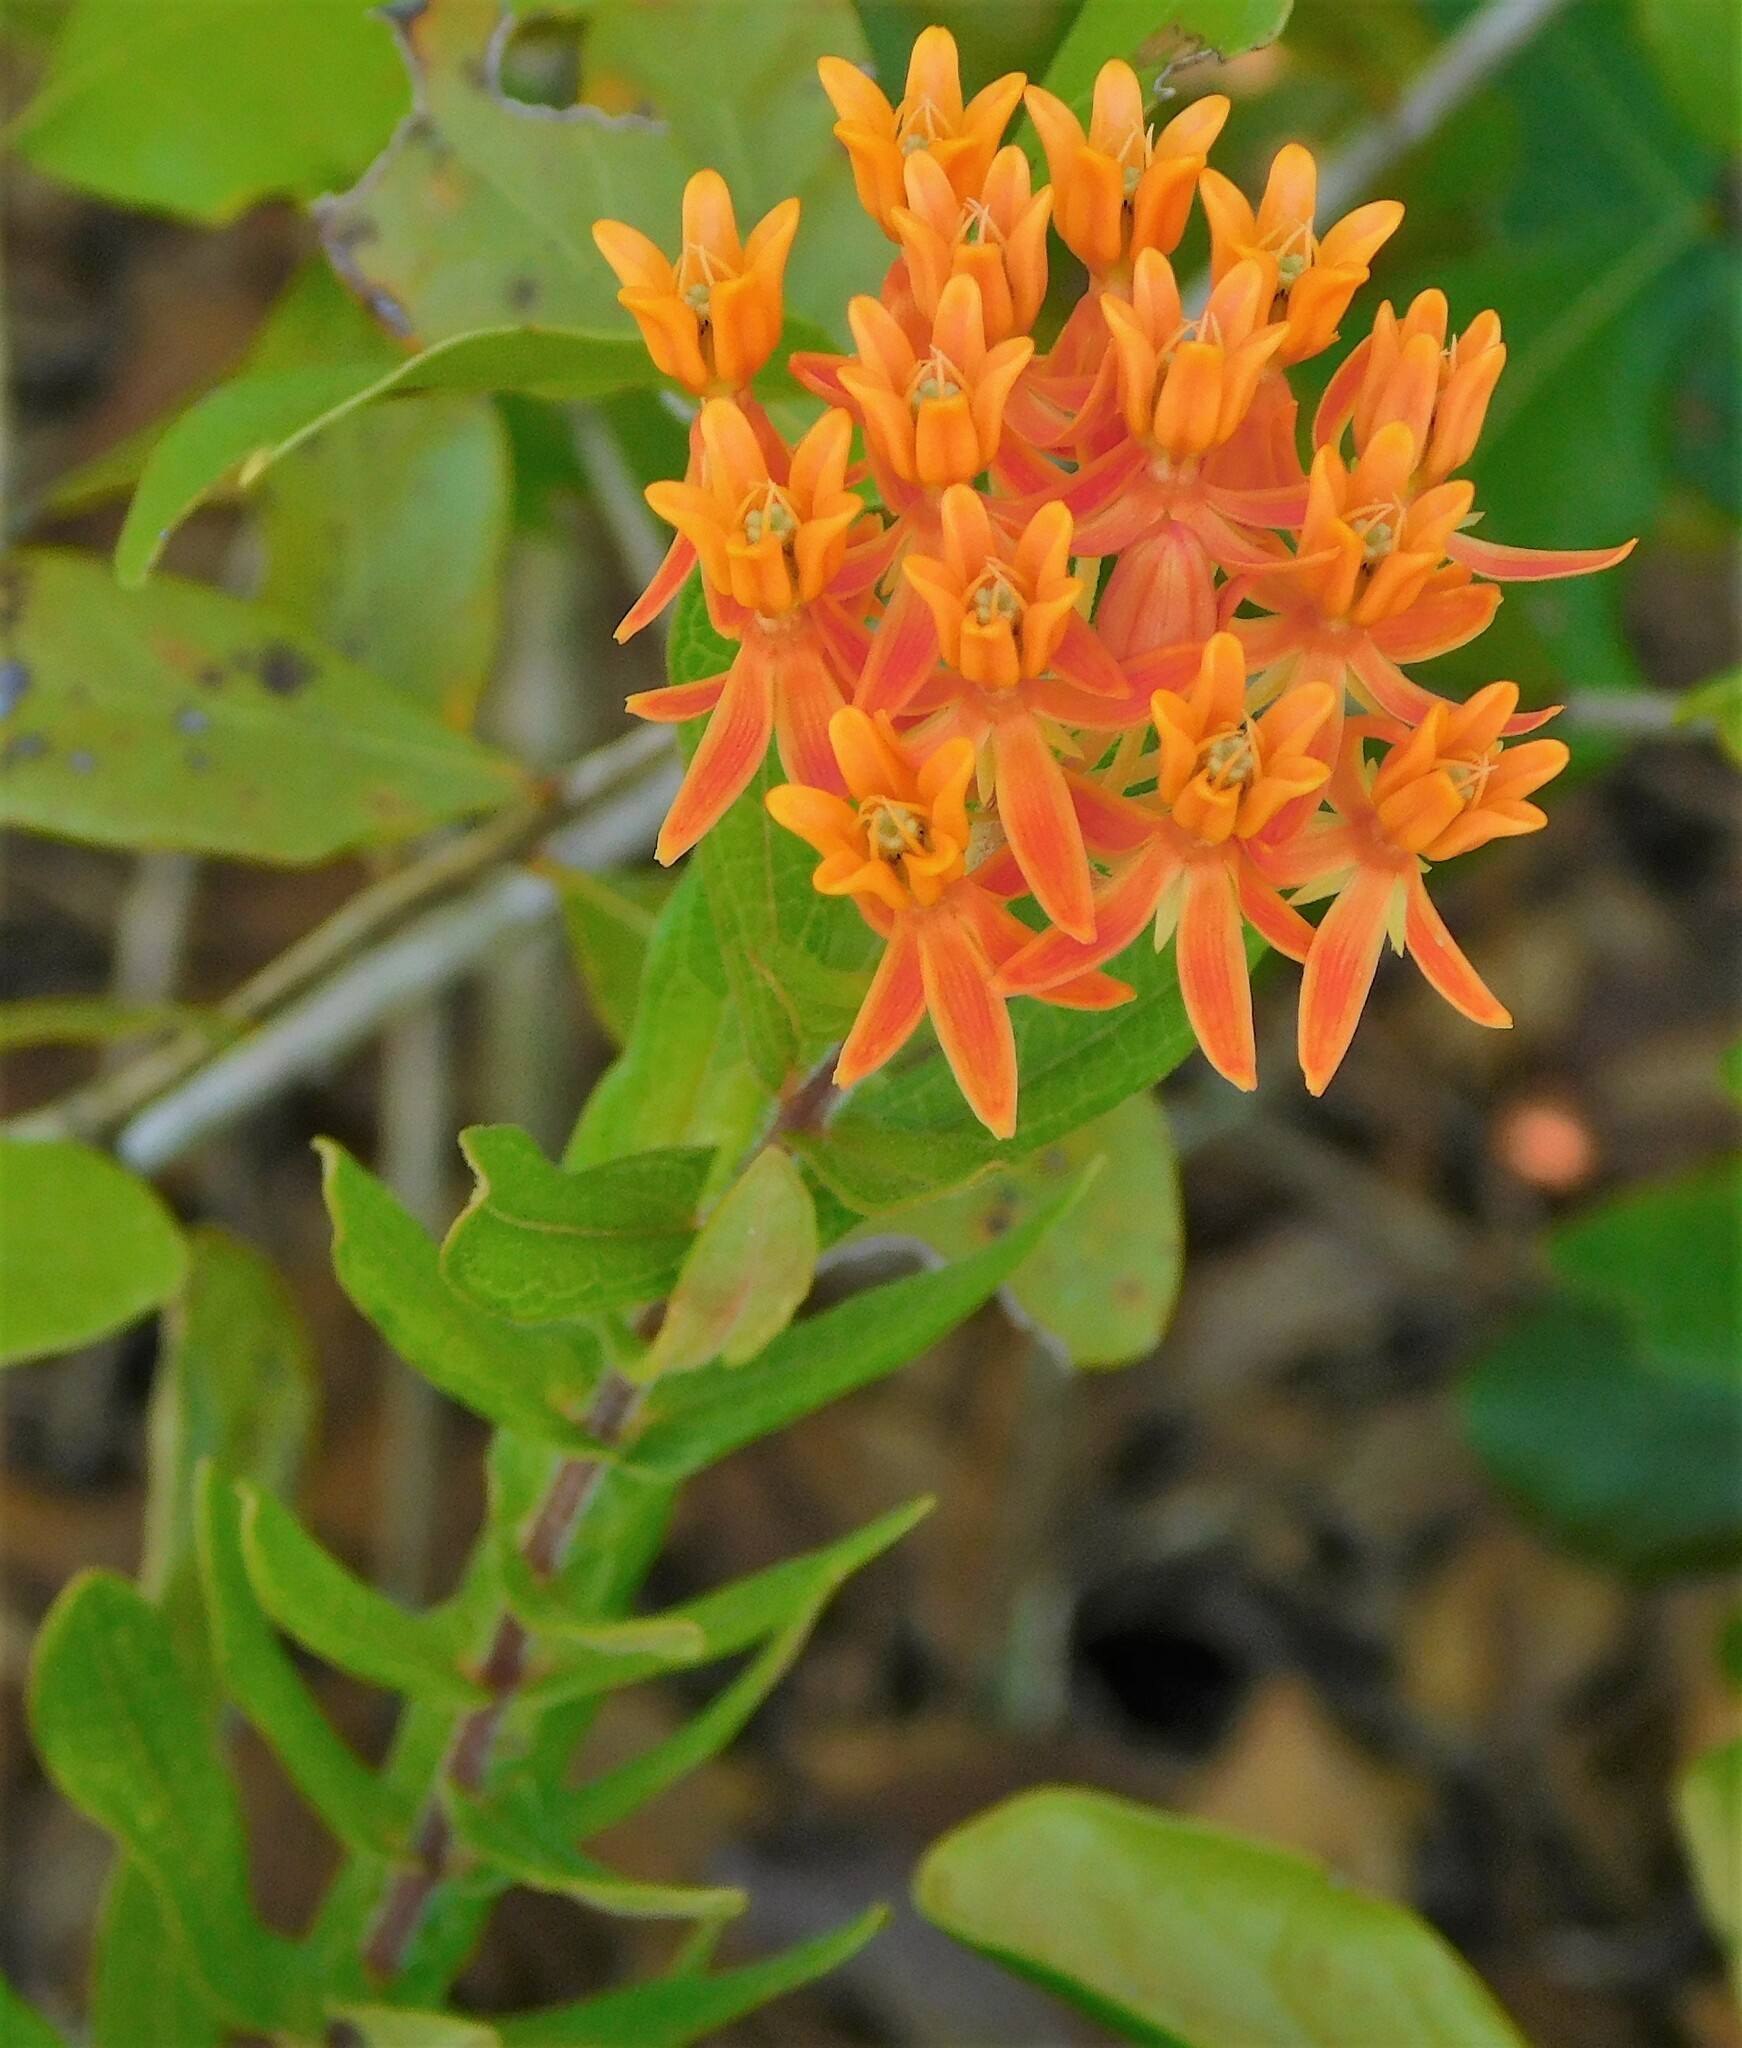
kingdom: Plantae
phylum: Tracheophyta
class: Magnoliopsida
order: Gentianales
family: Apocynaceae
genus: Asclepias
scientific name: Asclepias tuberosa
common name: Butterfly milkweed
